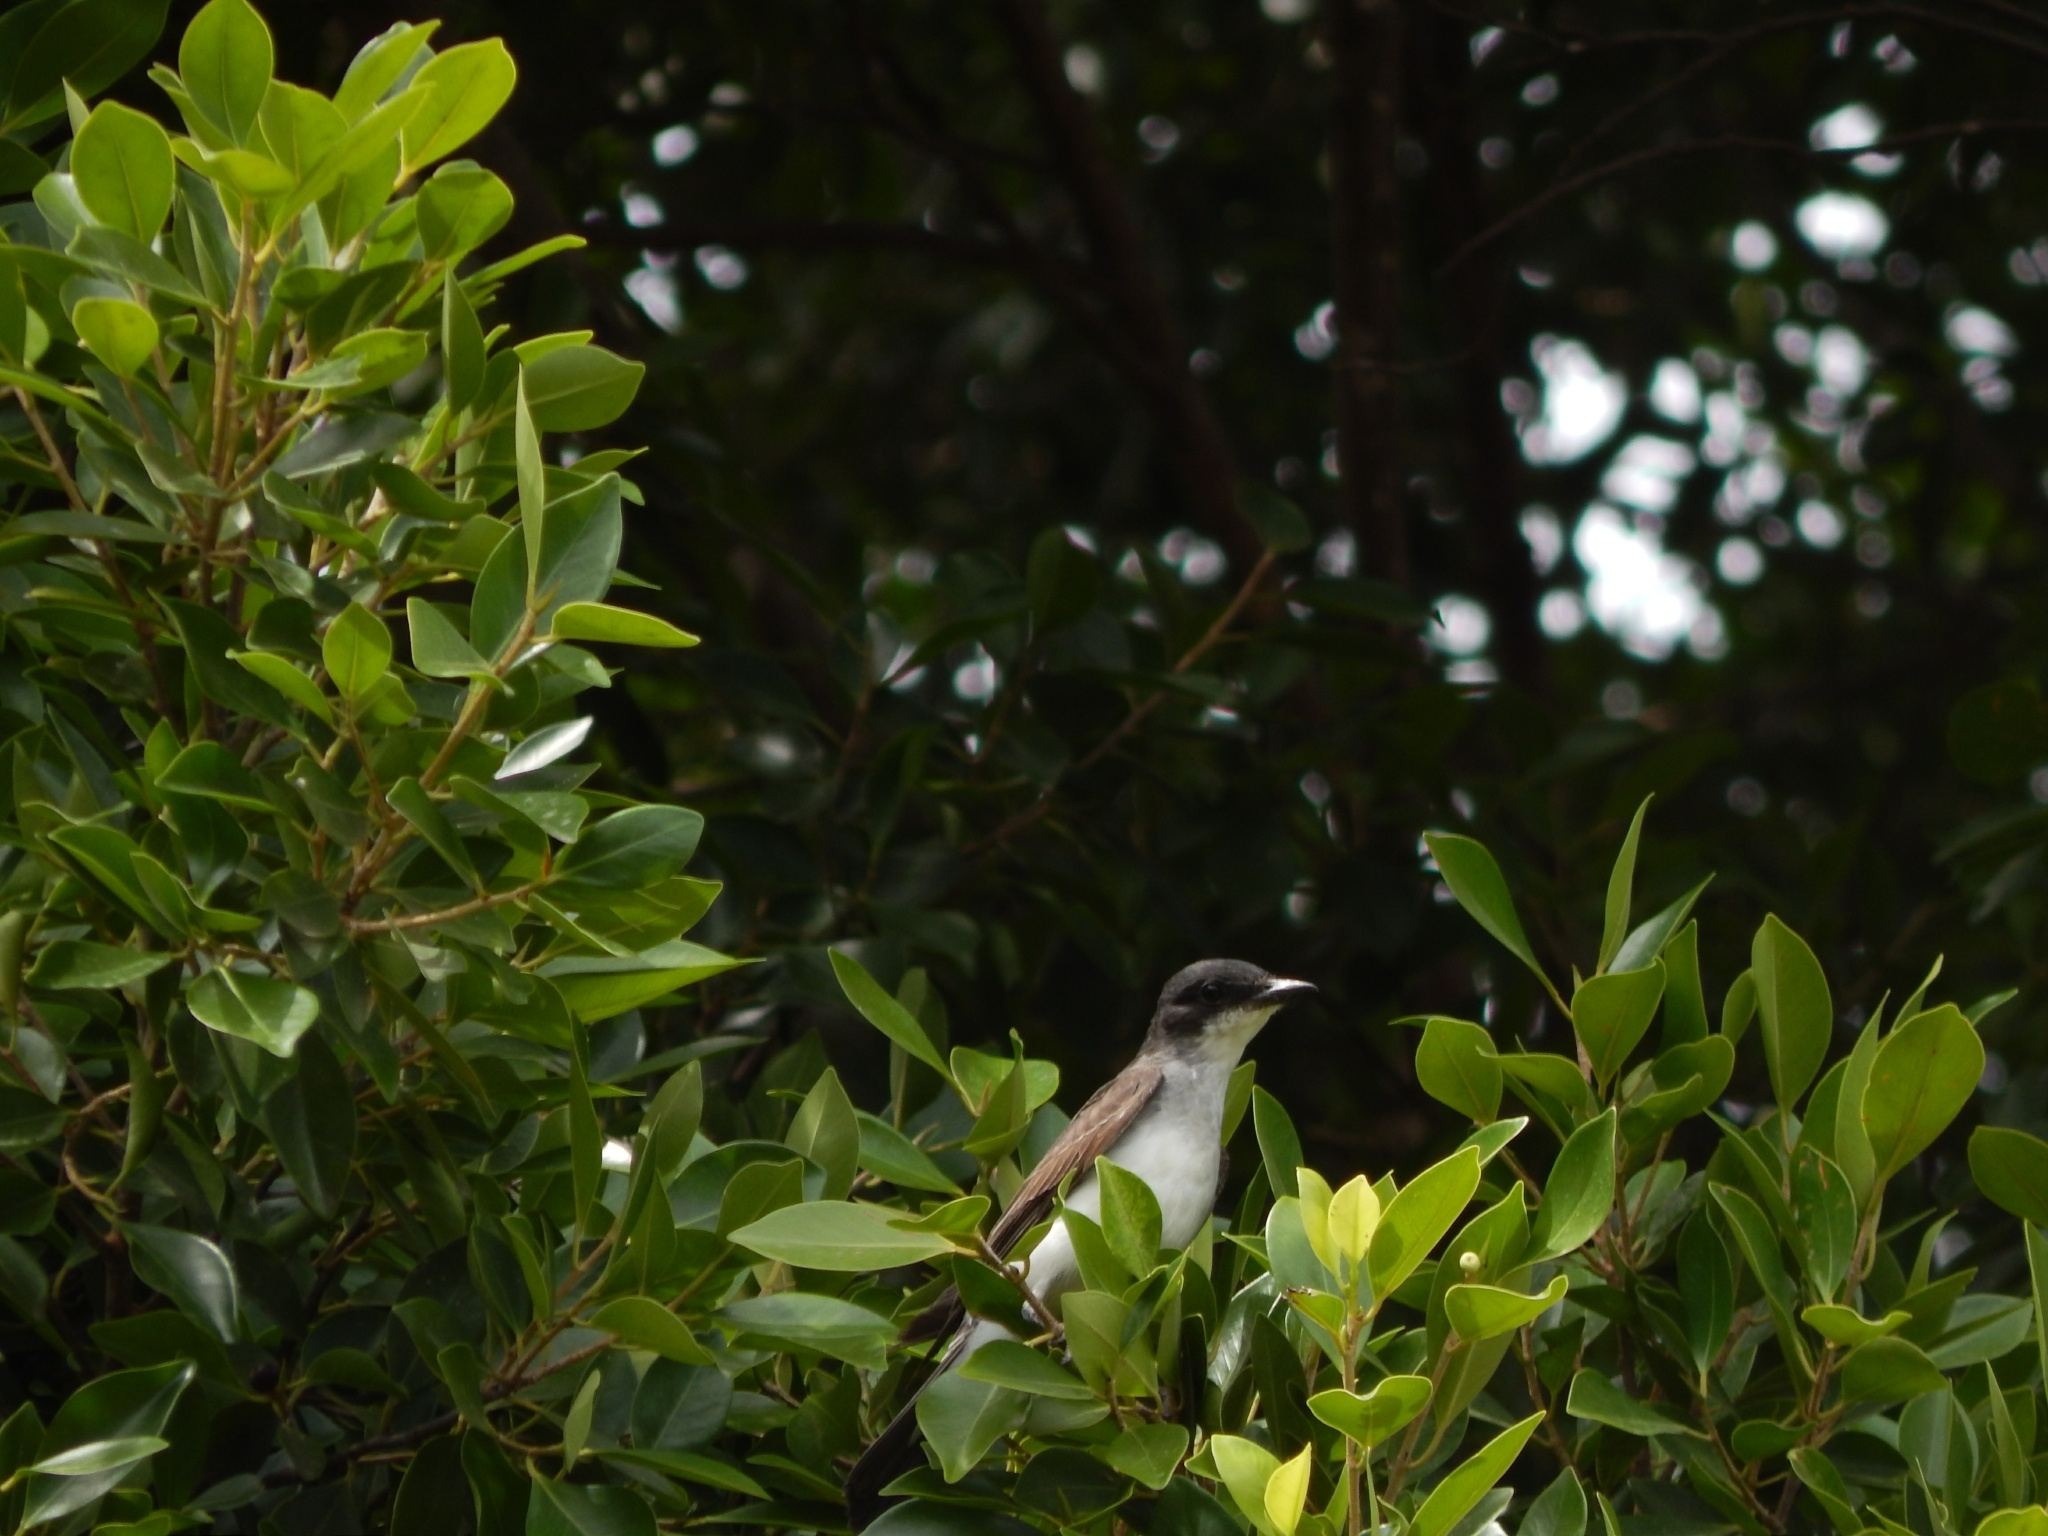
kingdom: Animalia
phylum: Chordata
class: Aves
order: Passeriformes
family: Tyrannidae
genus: Tyrannus
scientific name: Tyrannus tyrannus
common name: Eastern kingbird
